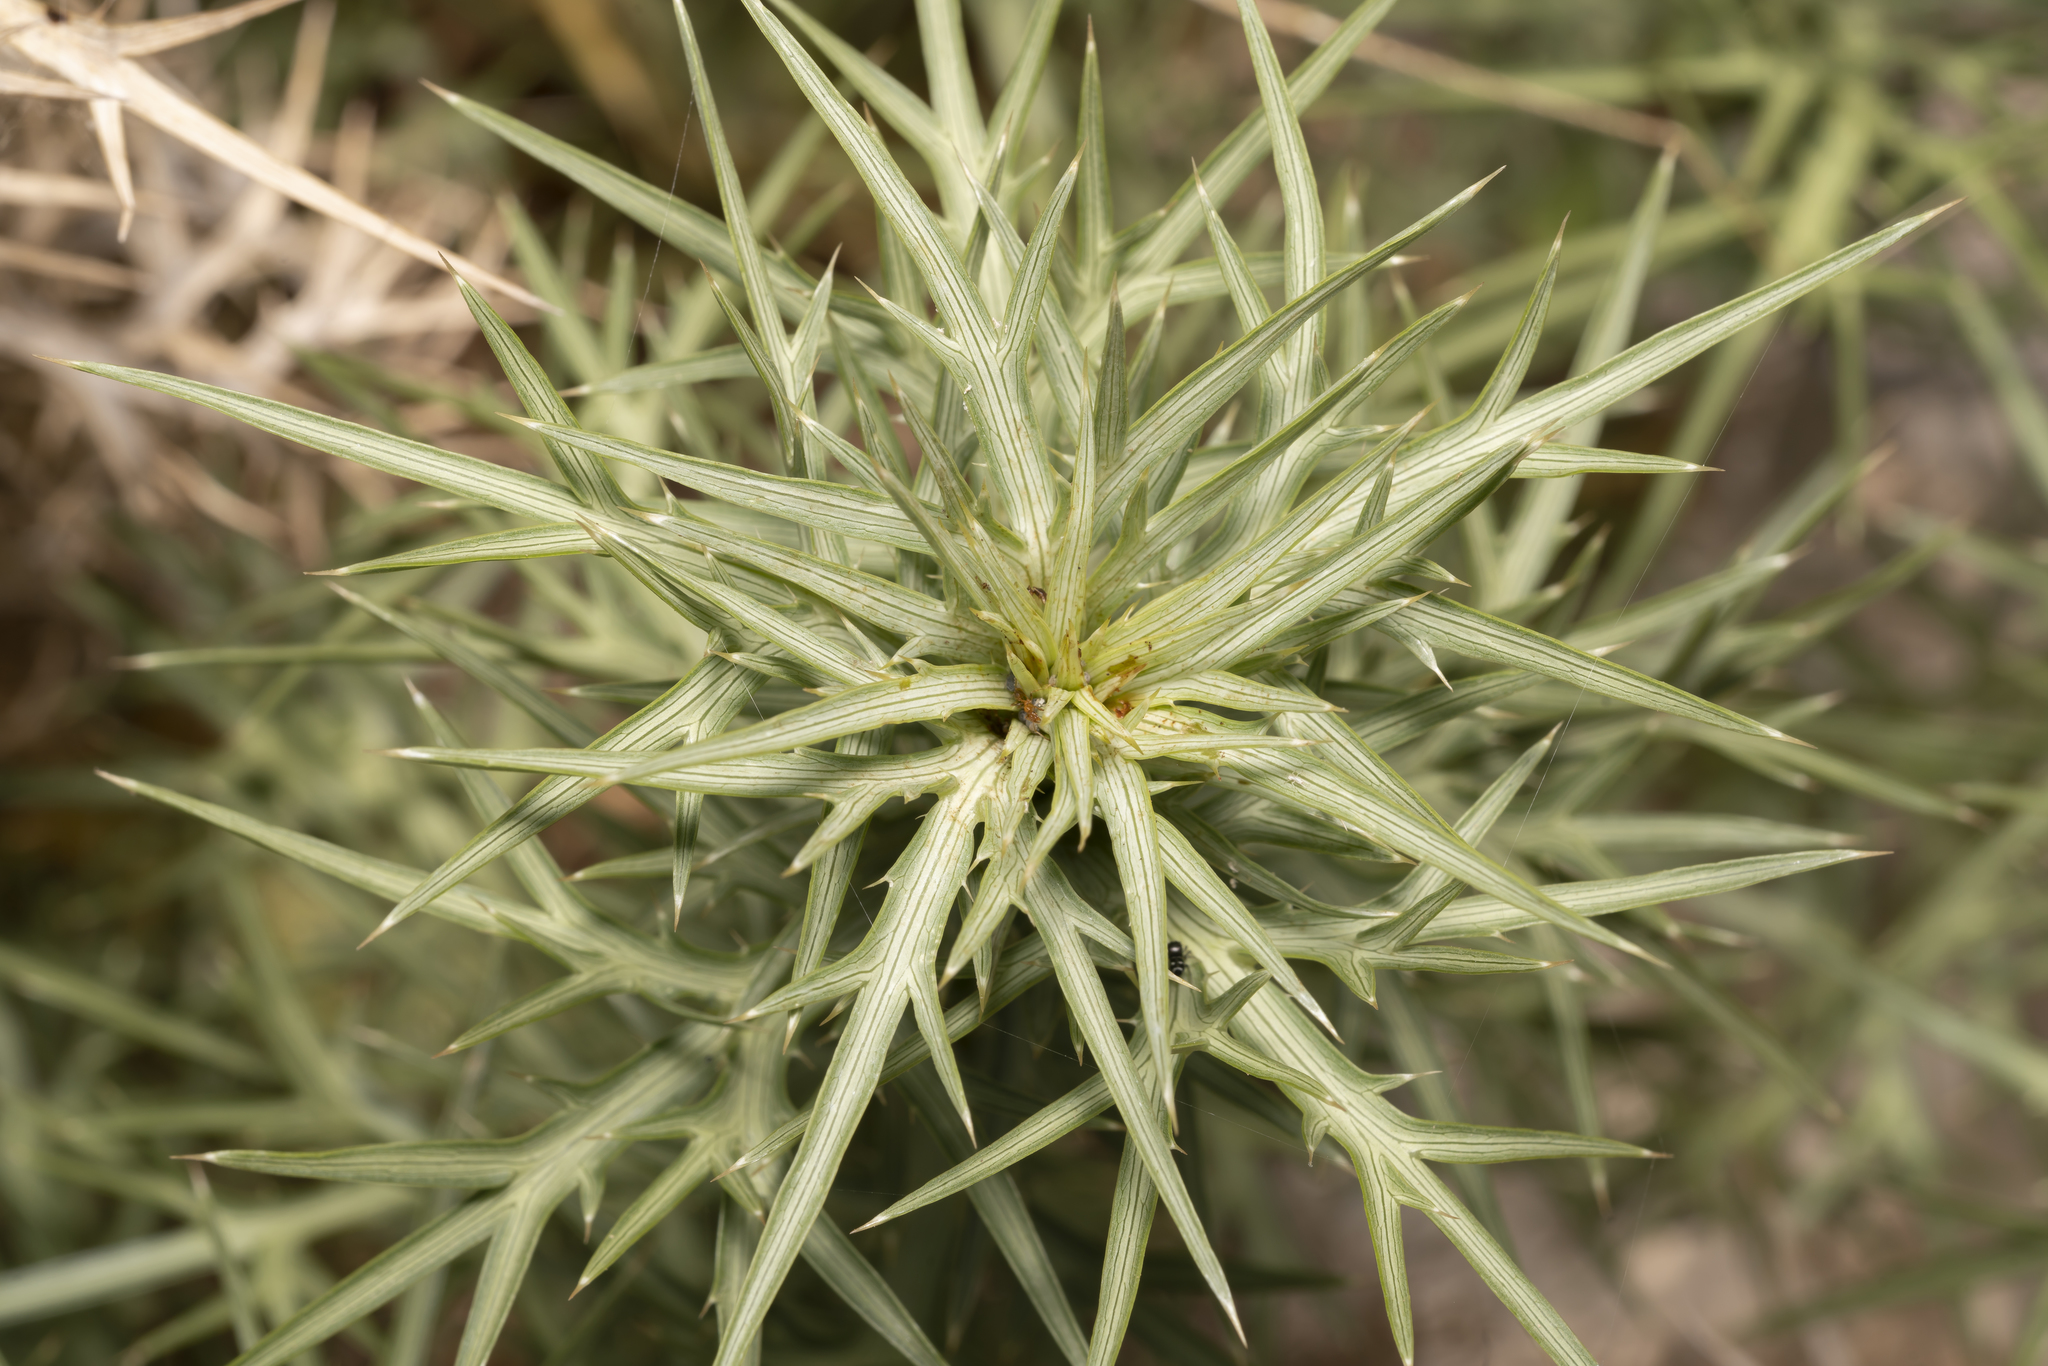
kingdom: Plantae
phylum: Tracheophyta
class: Magnoliopsida
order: Apiales
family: Apiaceae
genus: Eryngium
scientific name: Eryngium glomeratum
